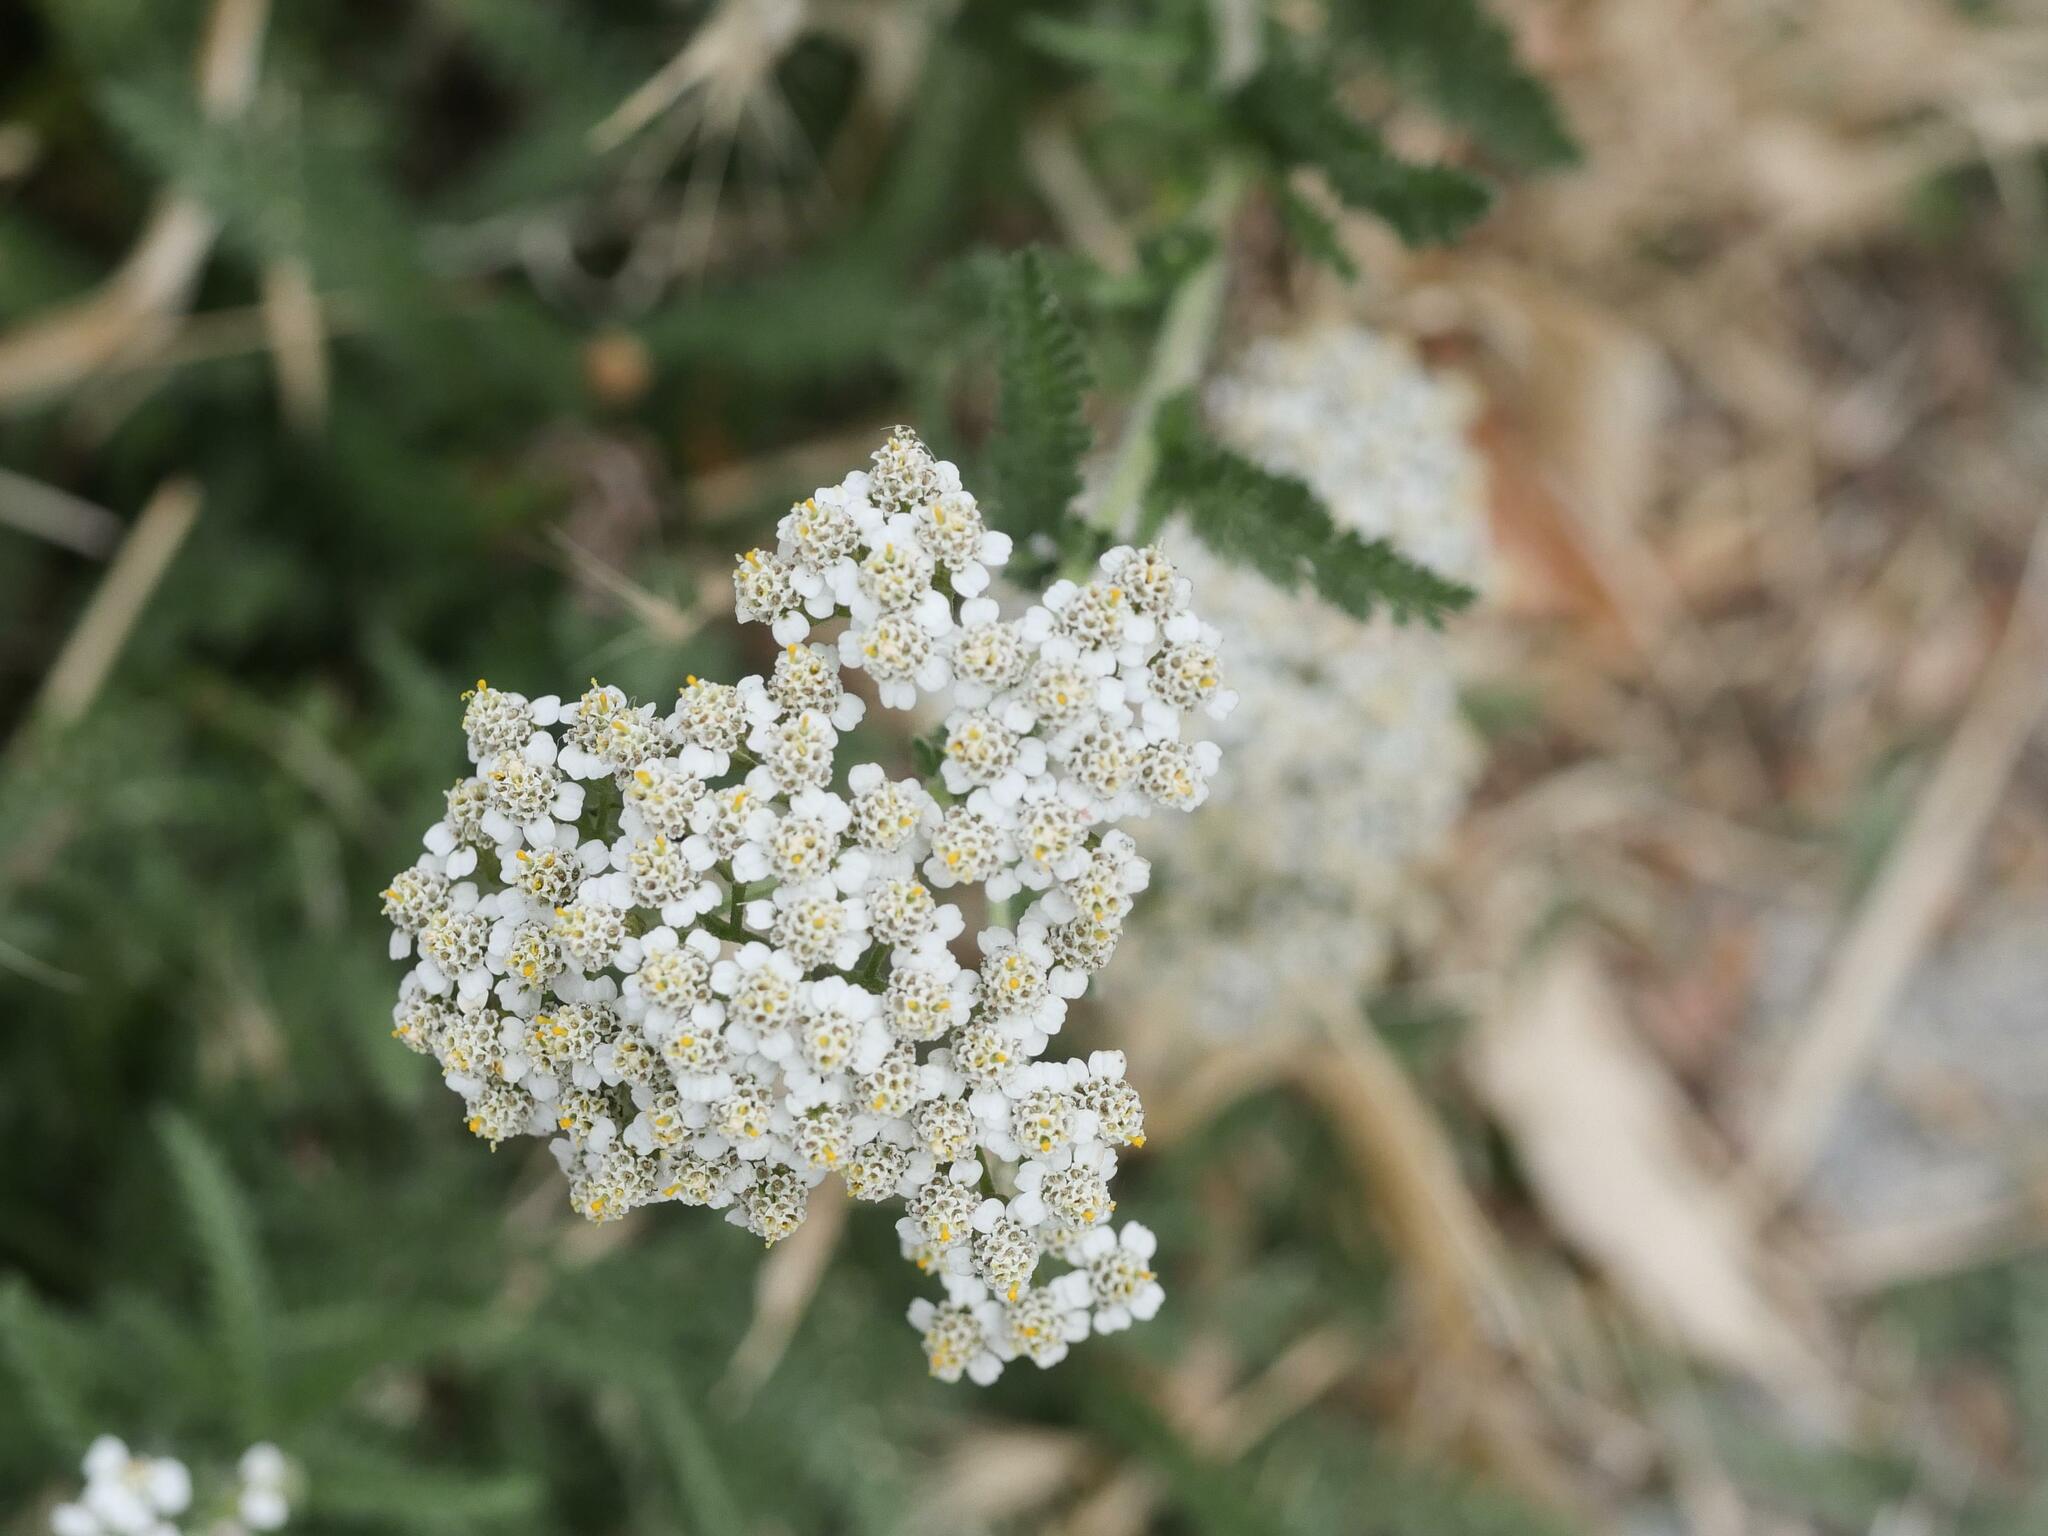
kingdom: Plantae
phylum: Tracheophyta
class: Magnoliopsida
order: Asterales
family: Asteraceae
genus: Achillea
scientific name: Achillea millefolium
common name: Yarrow
